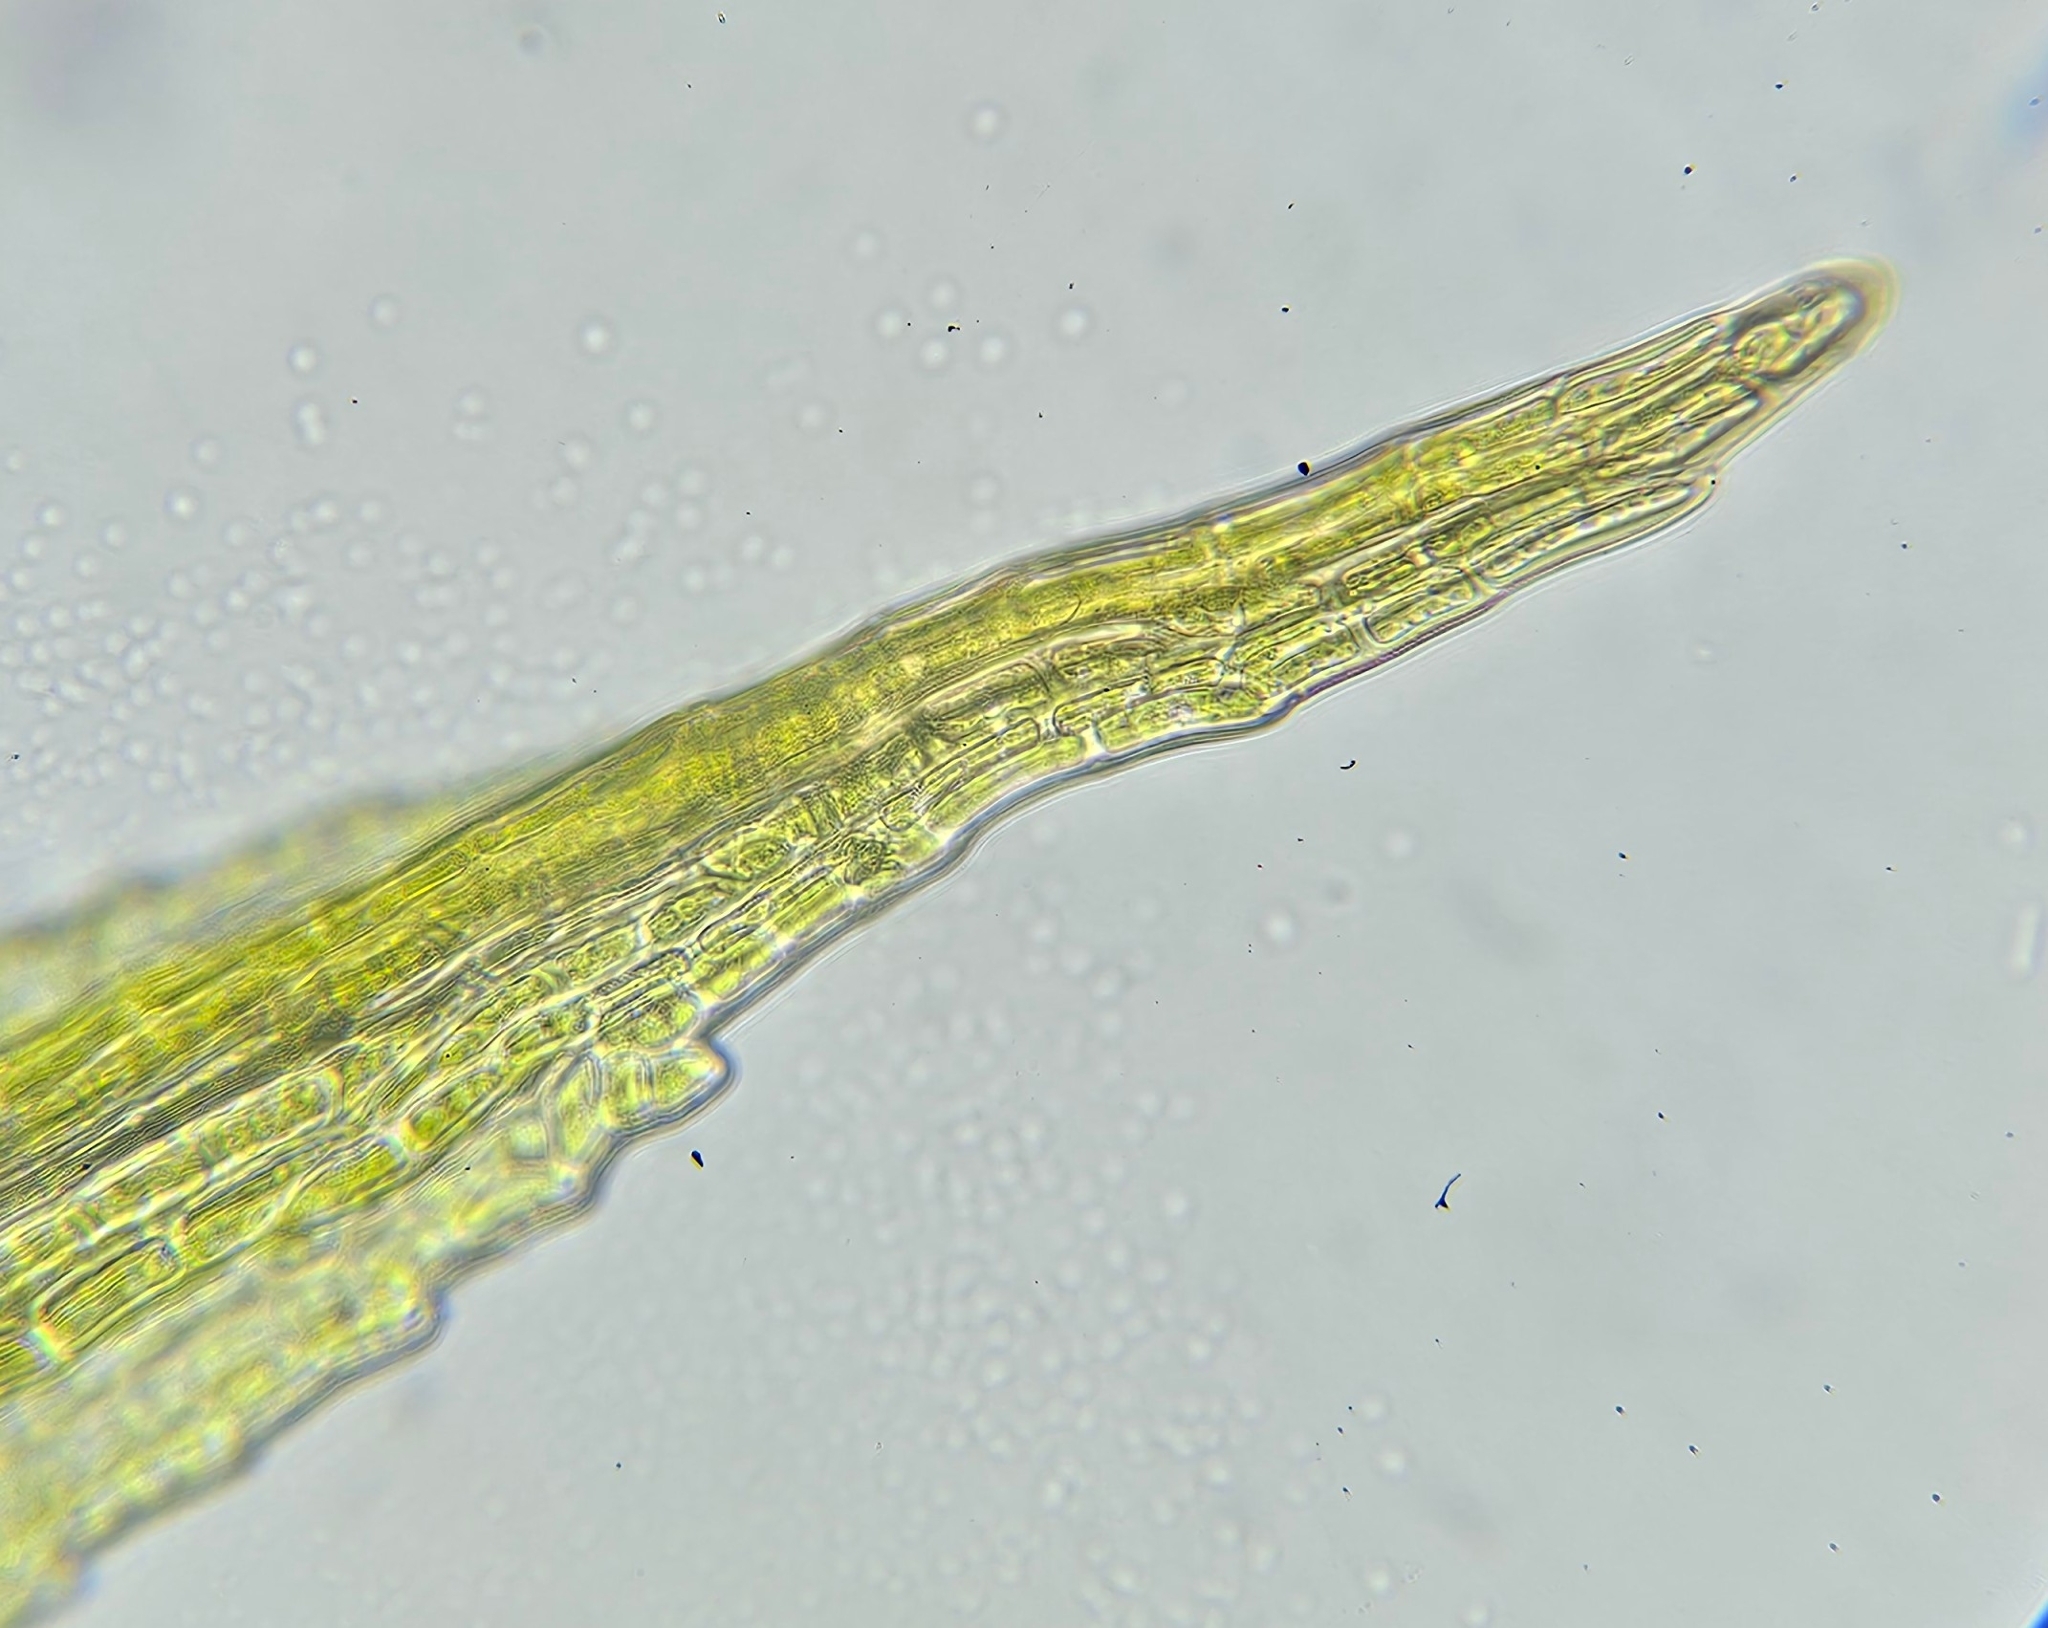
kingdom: Plantae
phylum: Bryophyta
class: Bryopsida
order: Dicranales
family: Ditrichaceae
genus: Ceratodon
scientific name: Ceratodon purpureus
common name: Redshank
